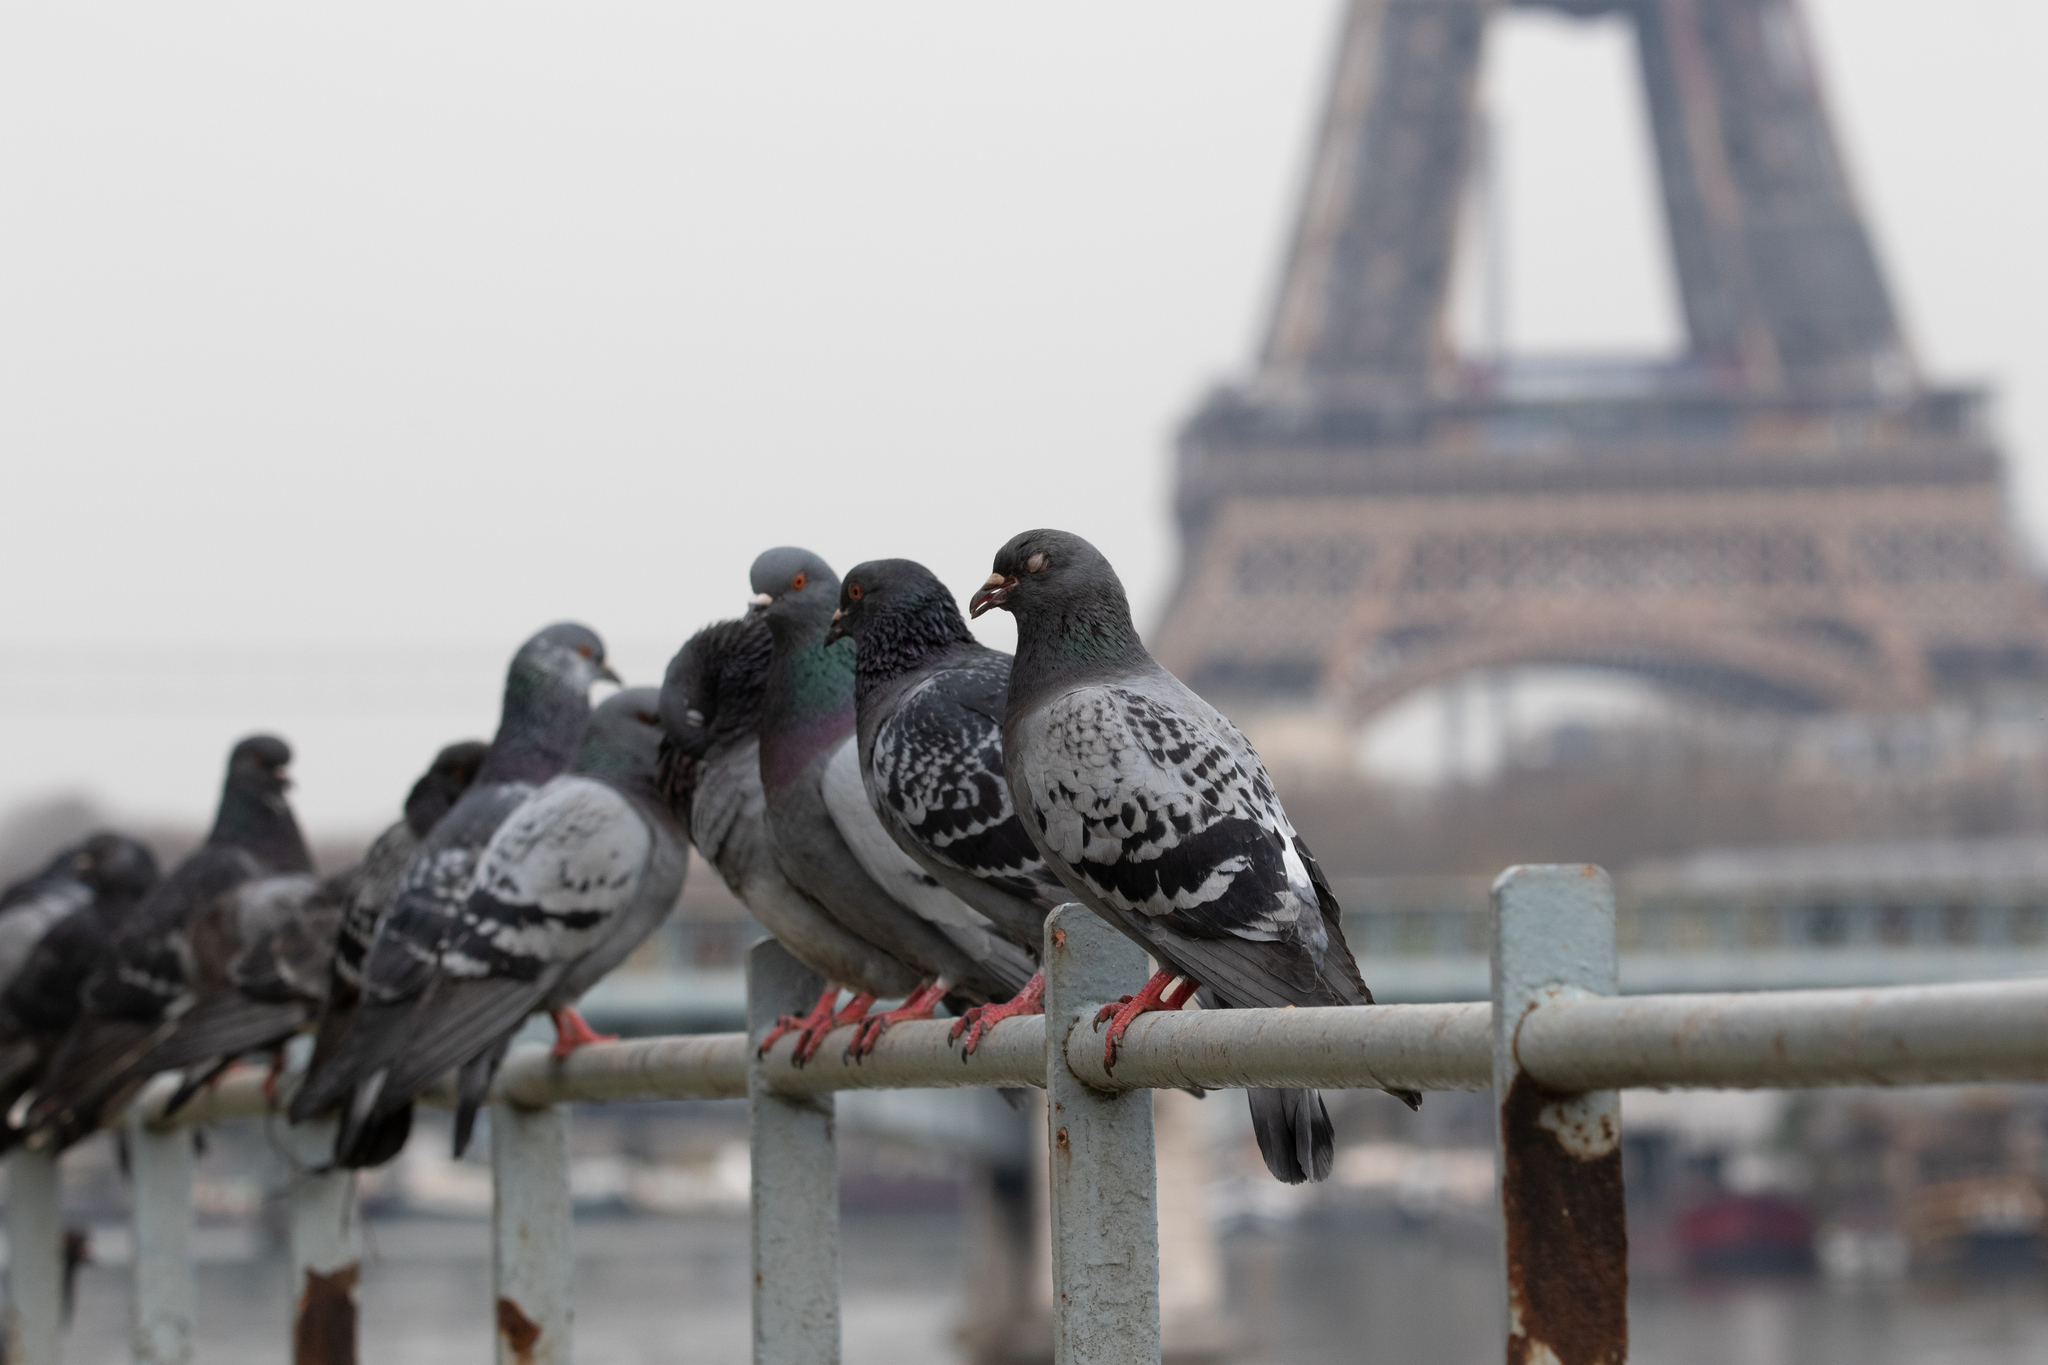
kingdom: Animalia
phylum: Chordata
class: Aves
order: Columbiformes
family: Columbidae
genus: Columba
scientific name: Columba livia
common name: Rock pigeon
